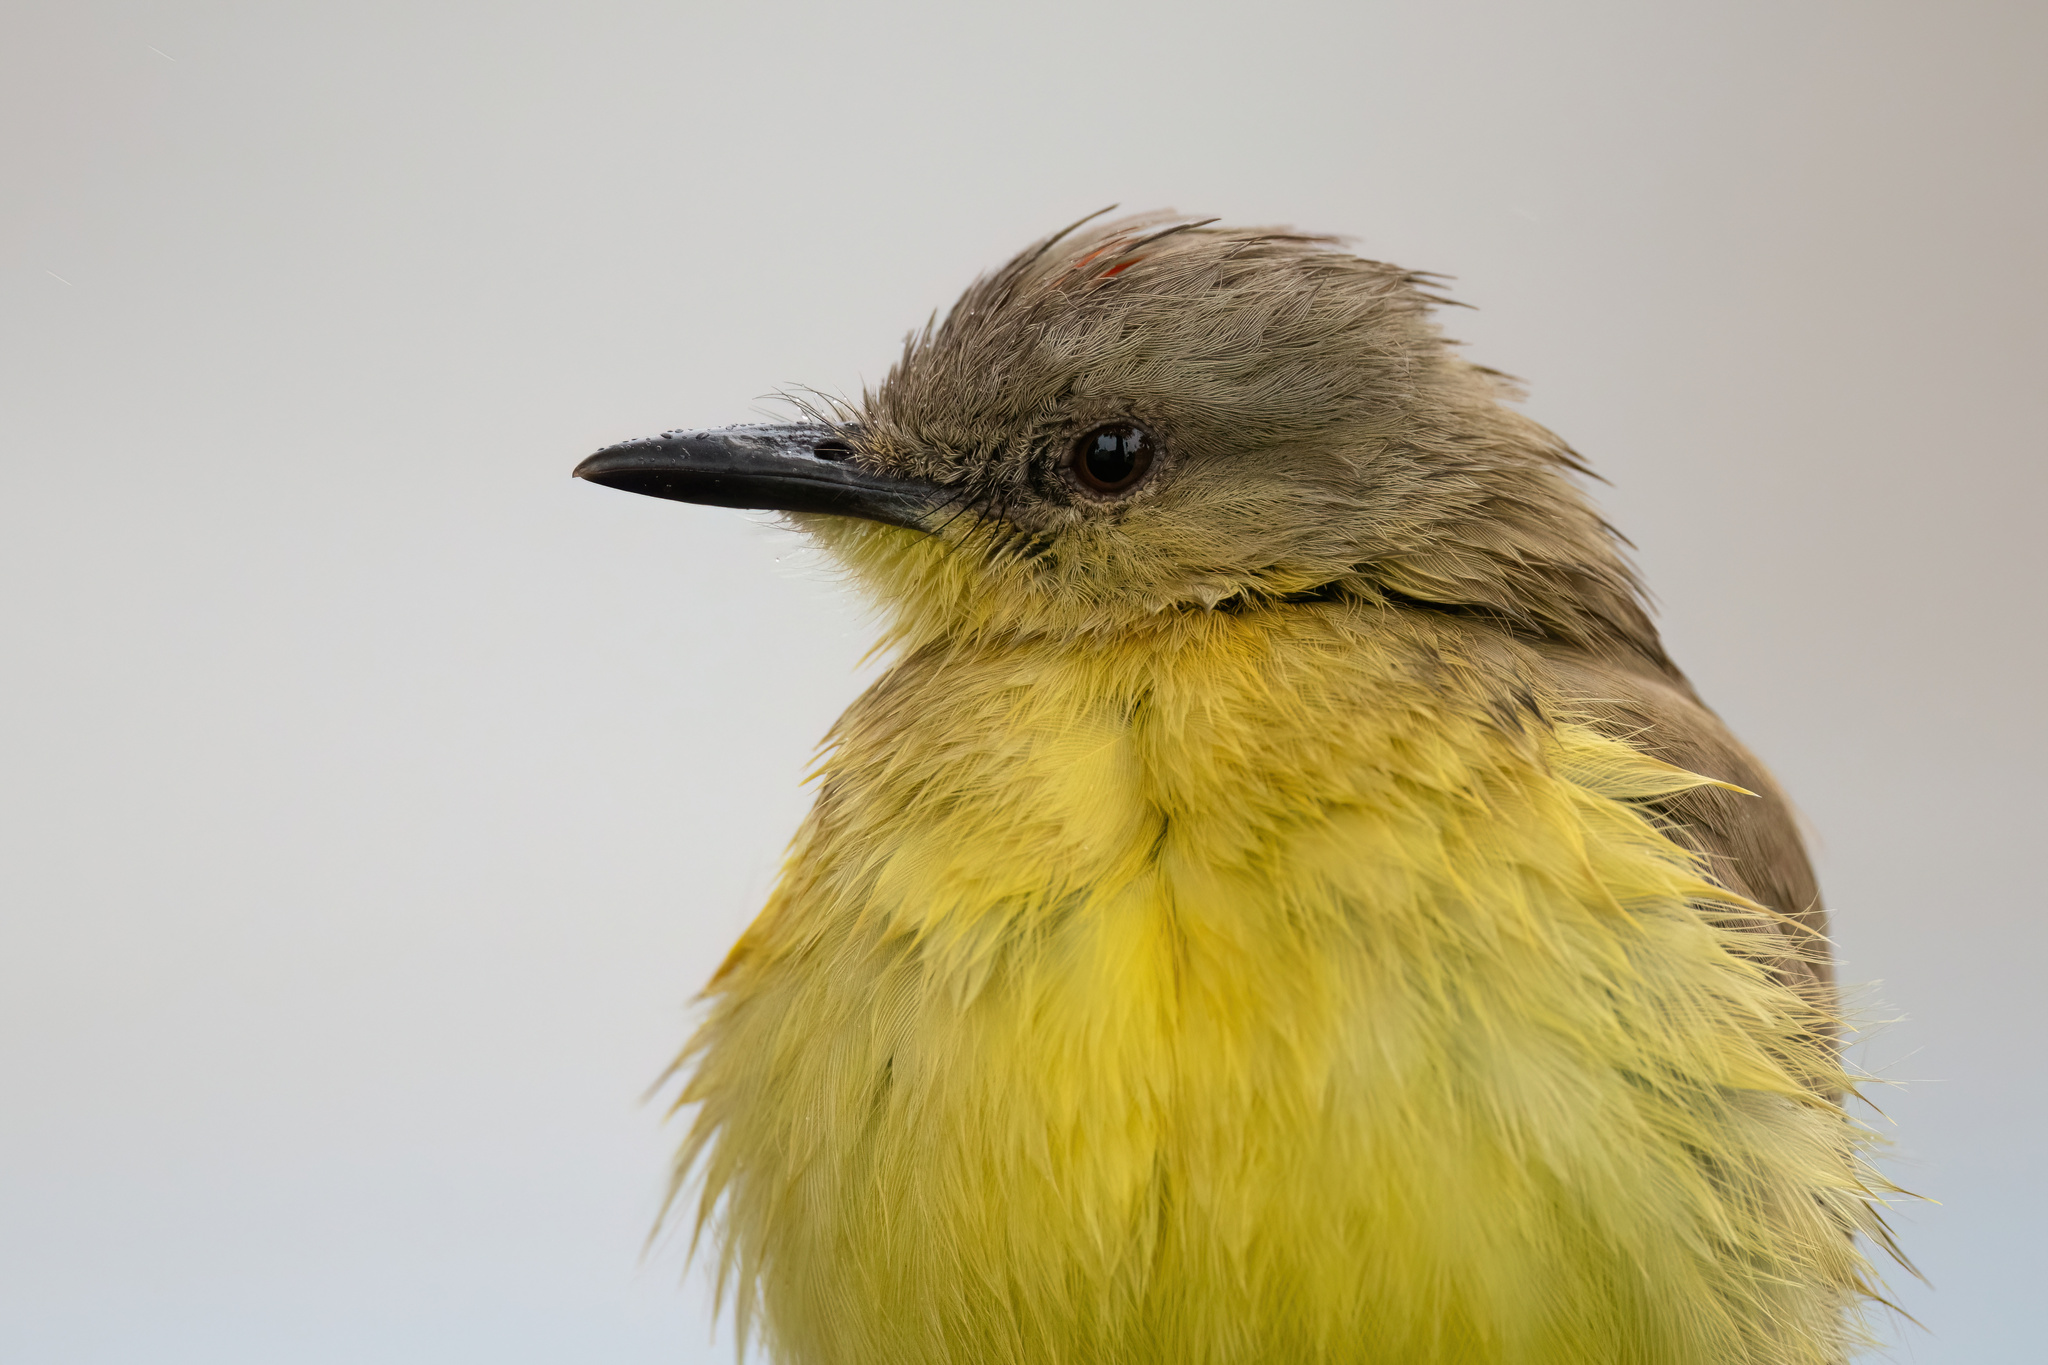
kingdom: Animalia
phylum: Chordata
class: Aves
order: Passeriformes
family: Tyrannidae
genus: Machetornis
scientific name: Machetornis rixosa
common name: Cattle tyrant
